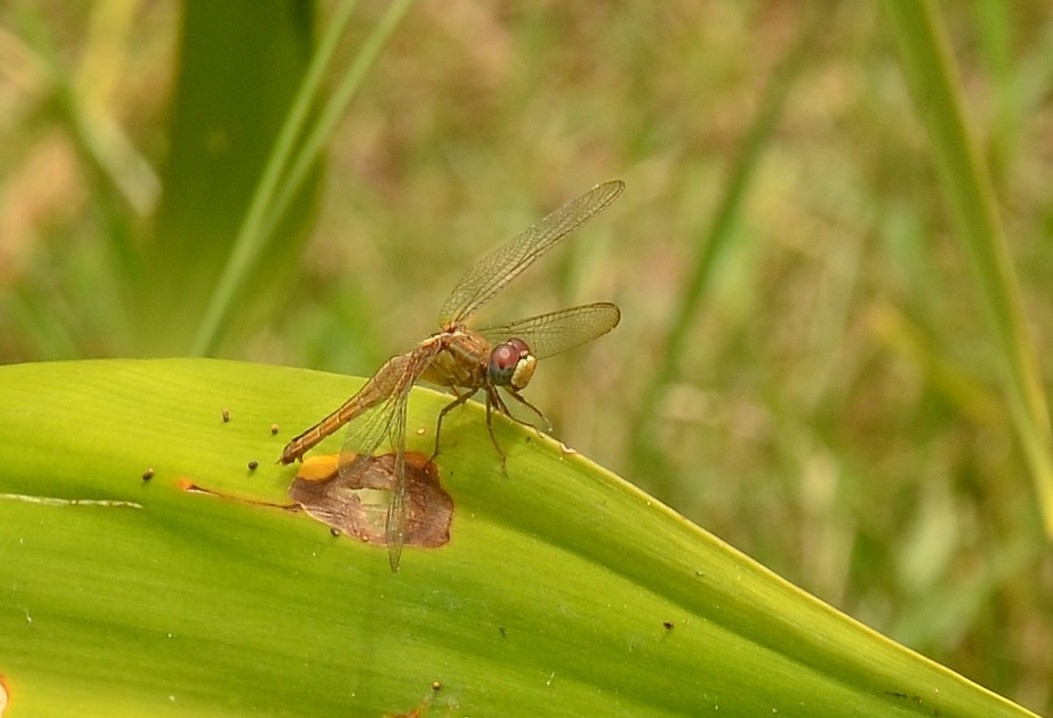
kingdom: Animalia
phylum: Arthropoda
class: Insecta
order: Odonata
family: Libellulidae
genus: Crocothemis
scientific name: Crocothemis servilia
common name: Scarlet skimmer
